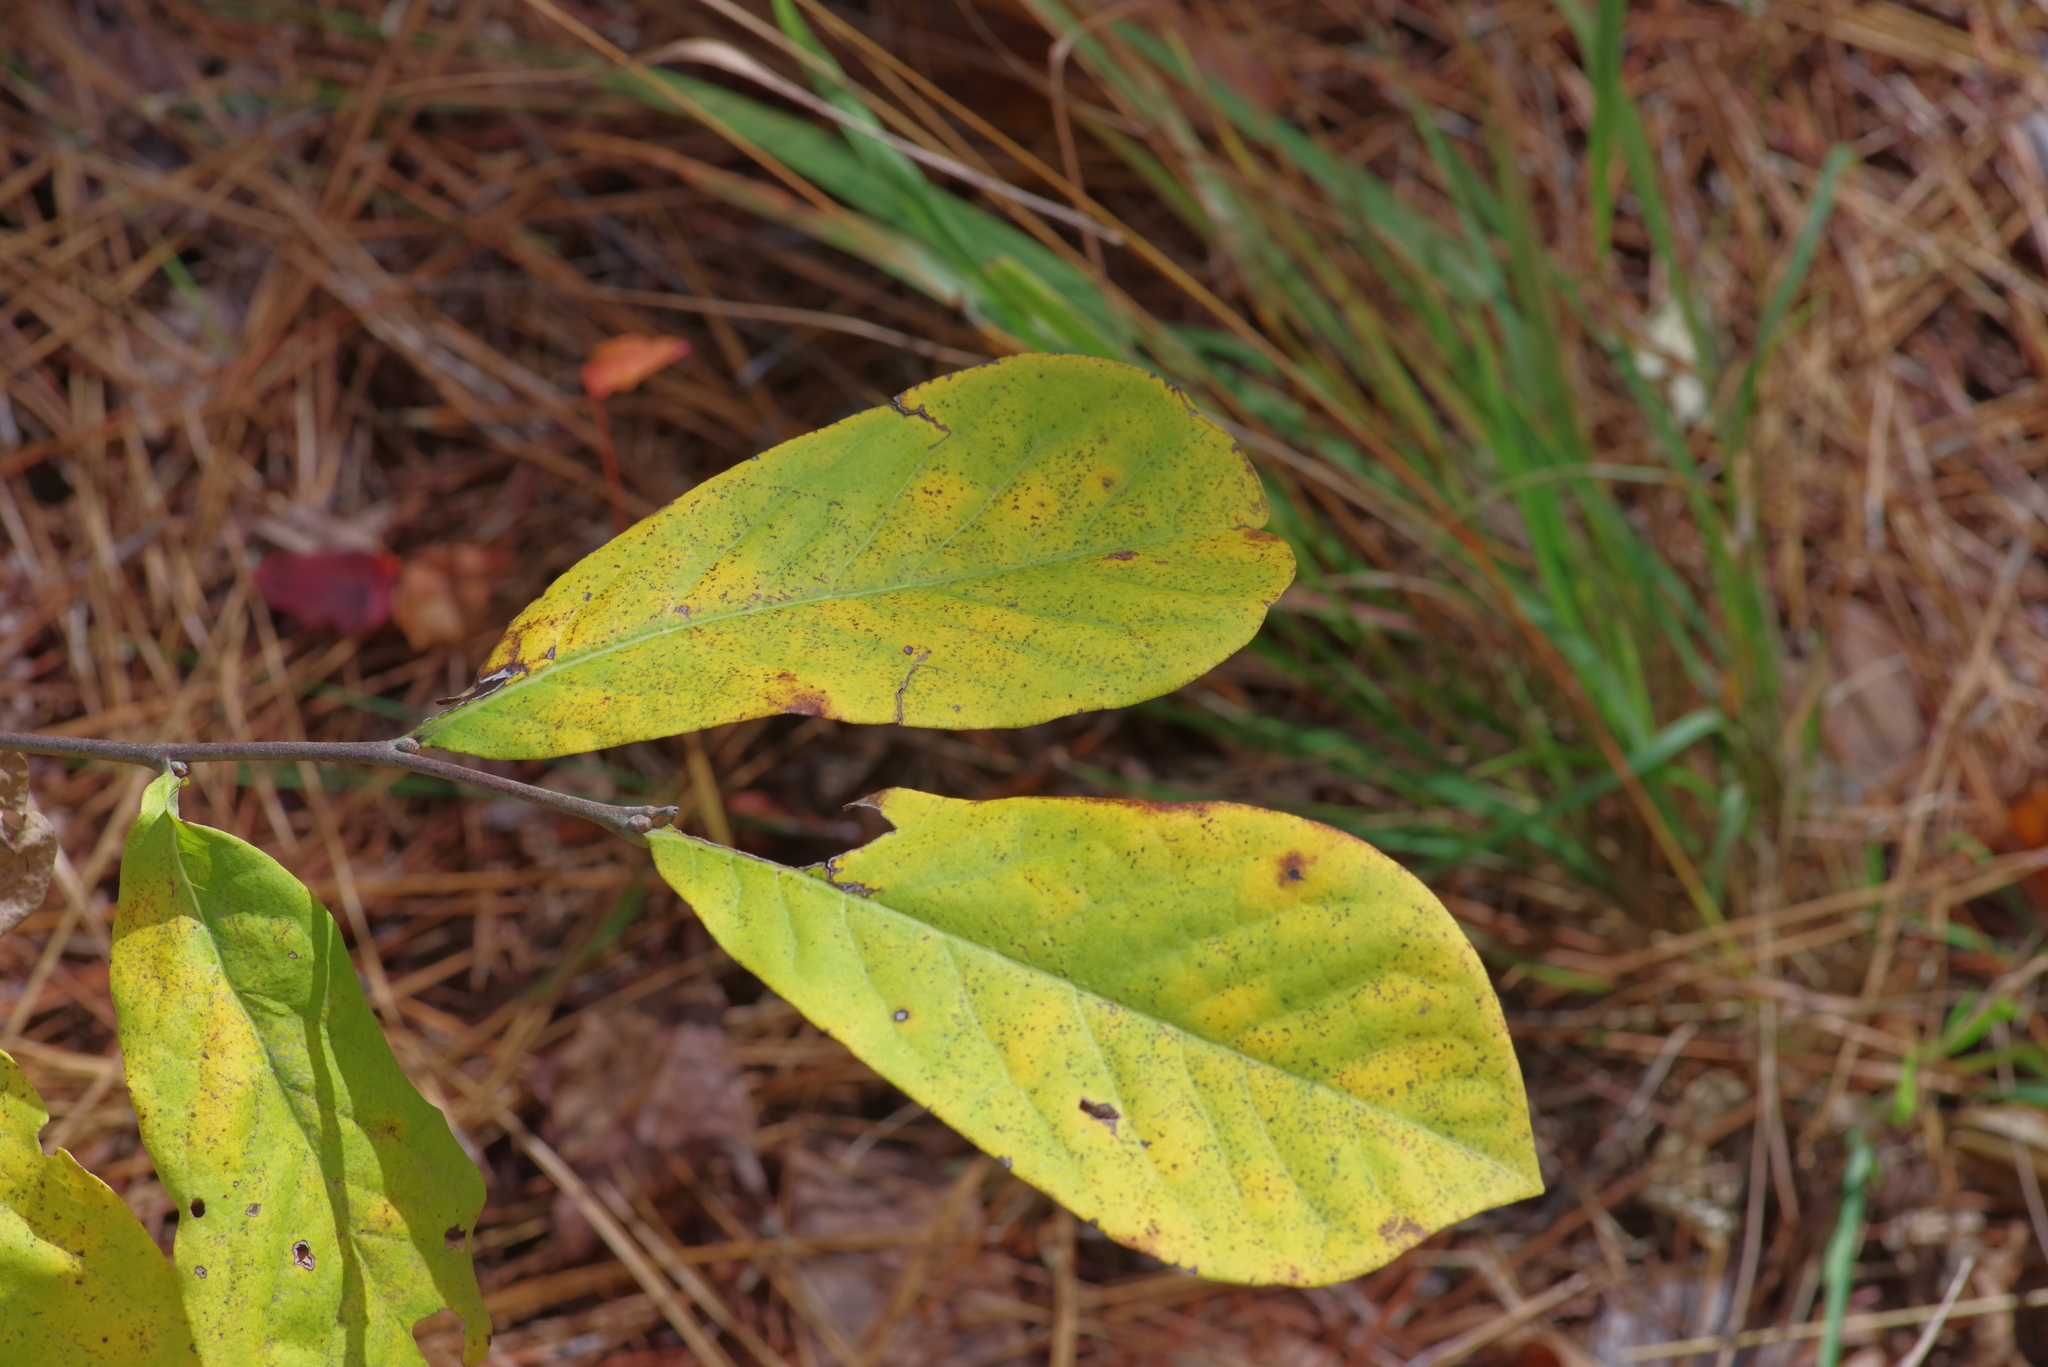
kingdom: Plantae
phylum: Tracheophyta
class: Magnoliopsida
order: Magnoliales
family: Annonaceae
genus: Asimina
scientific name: Asimina parviflora
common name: Dwarf pawpaw
